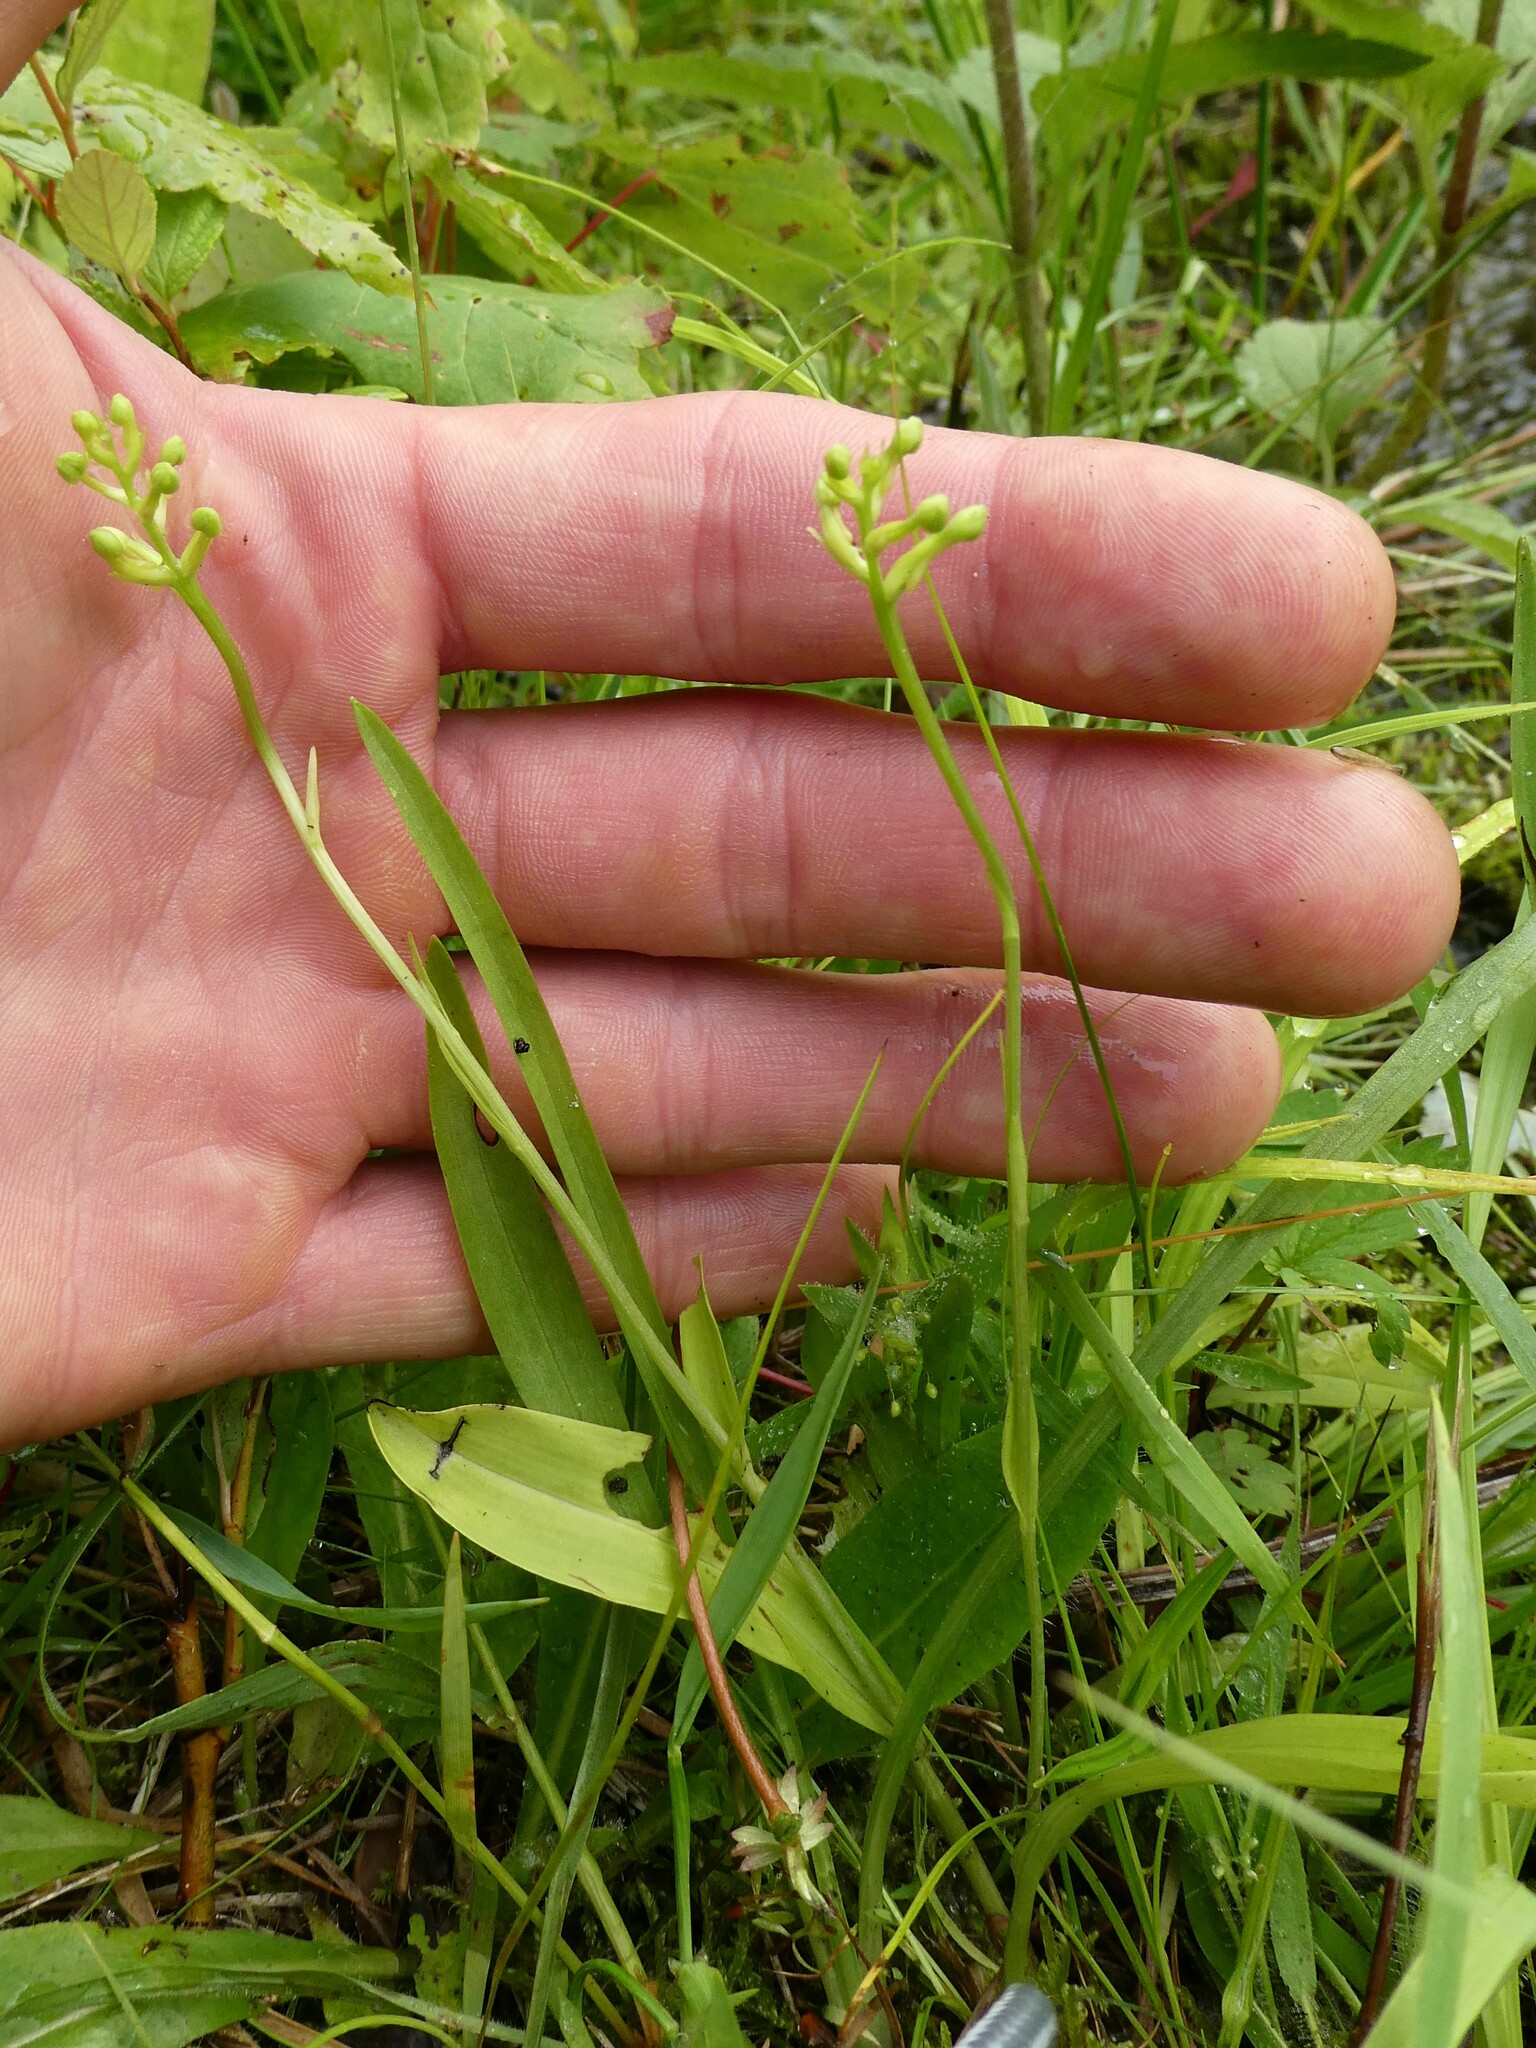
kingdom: Plantae
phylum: Tracheophyta
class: Liliopsida
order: Asparagales
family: Orchidaceae
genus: Platanthera
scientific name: Platanthera clavellata
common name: Club-spur orchid
